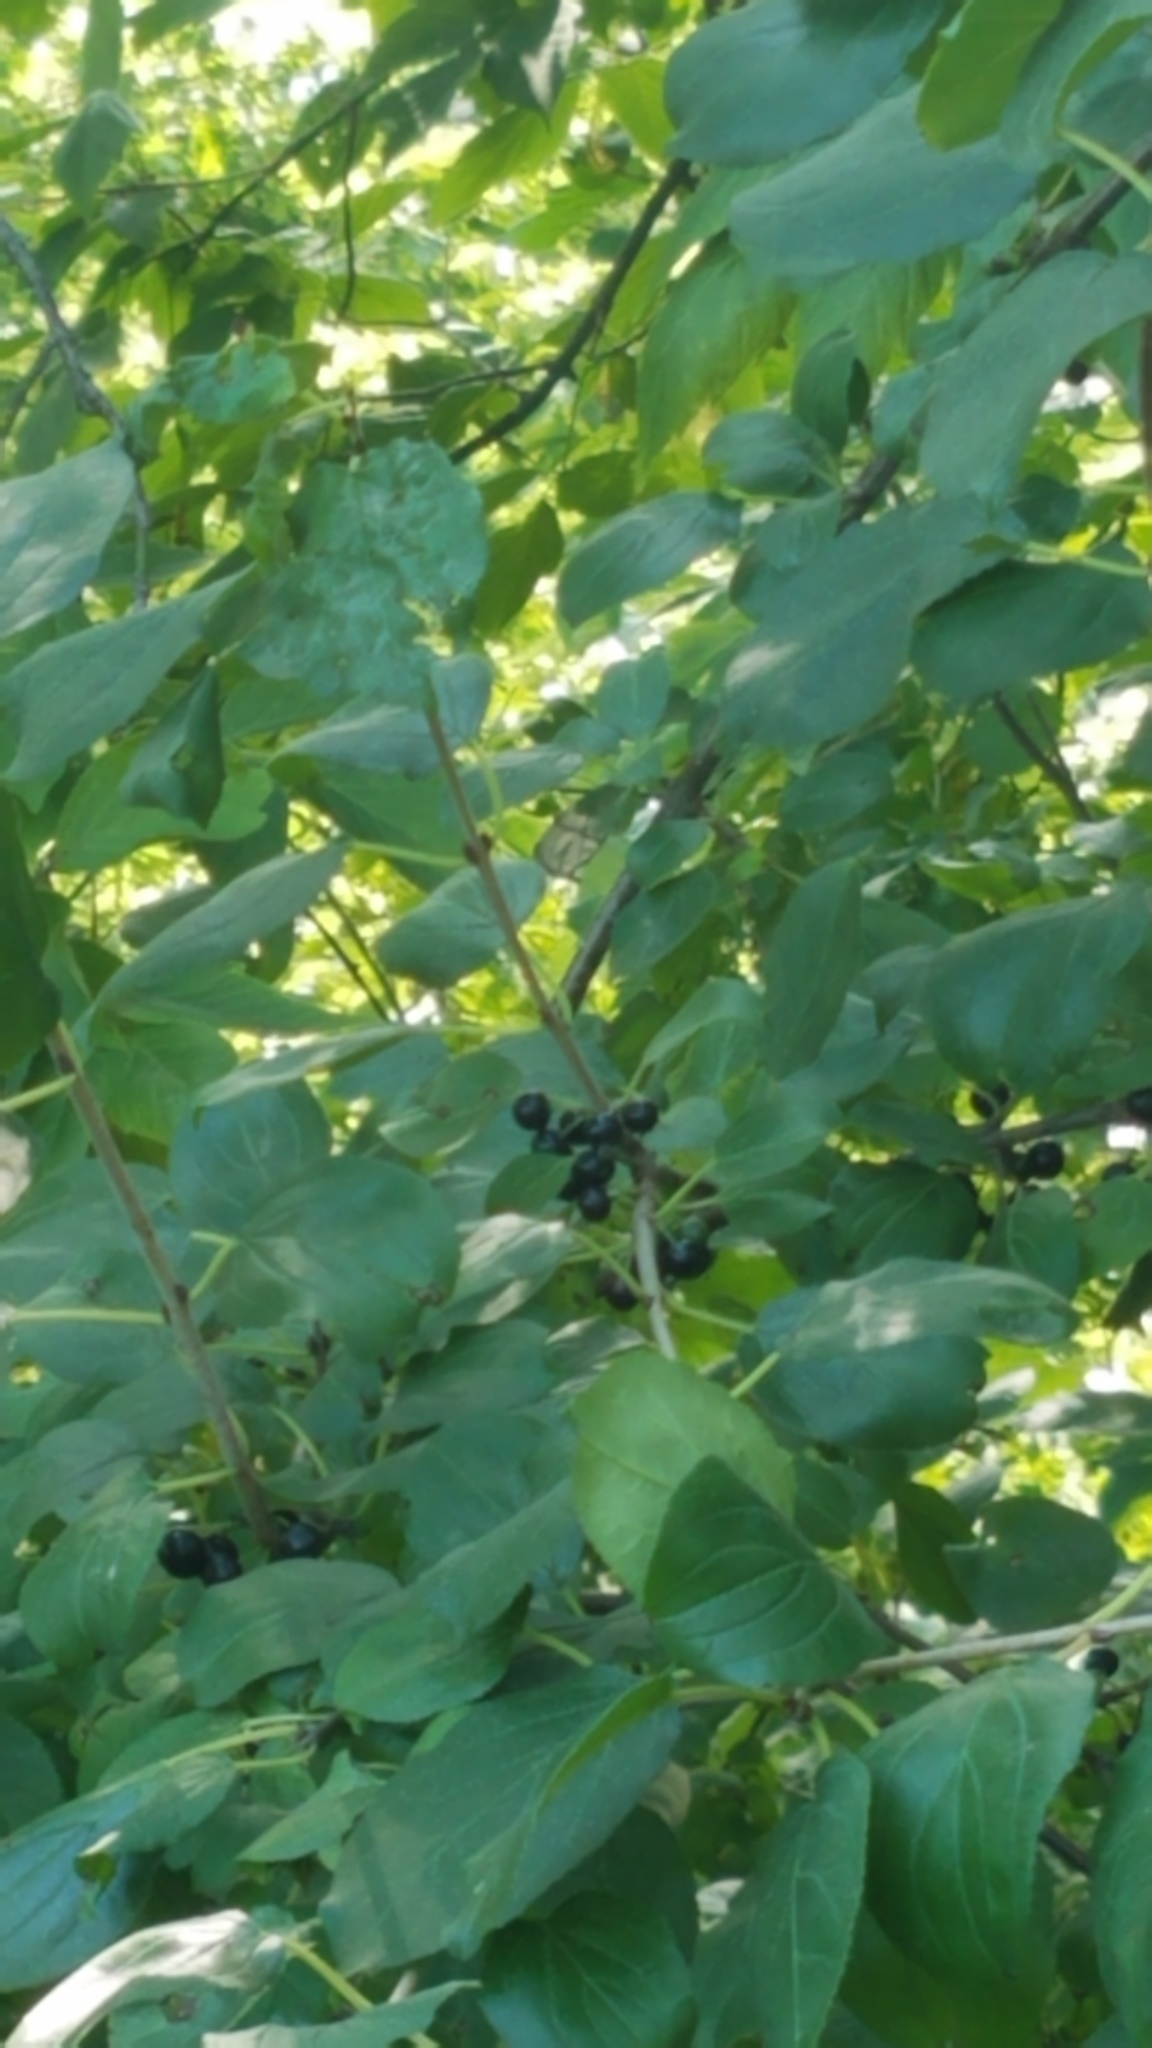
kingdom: Plantae
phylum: Tracheophyta
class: Magnoliopsida
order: Rosales
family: Rhamnaceae
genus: Rhamnus
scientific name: Rhamnus cathartica
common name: Common buckthorn
